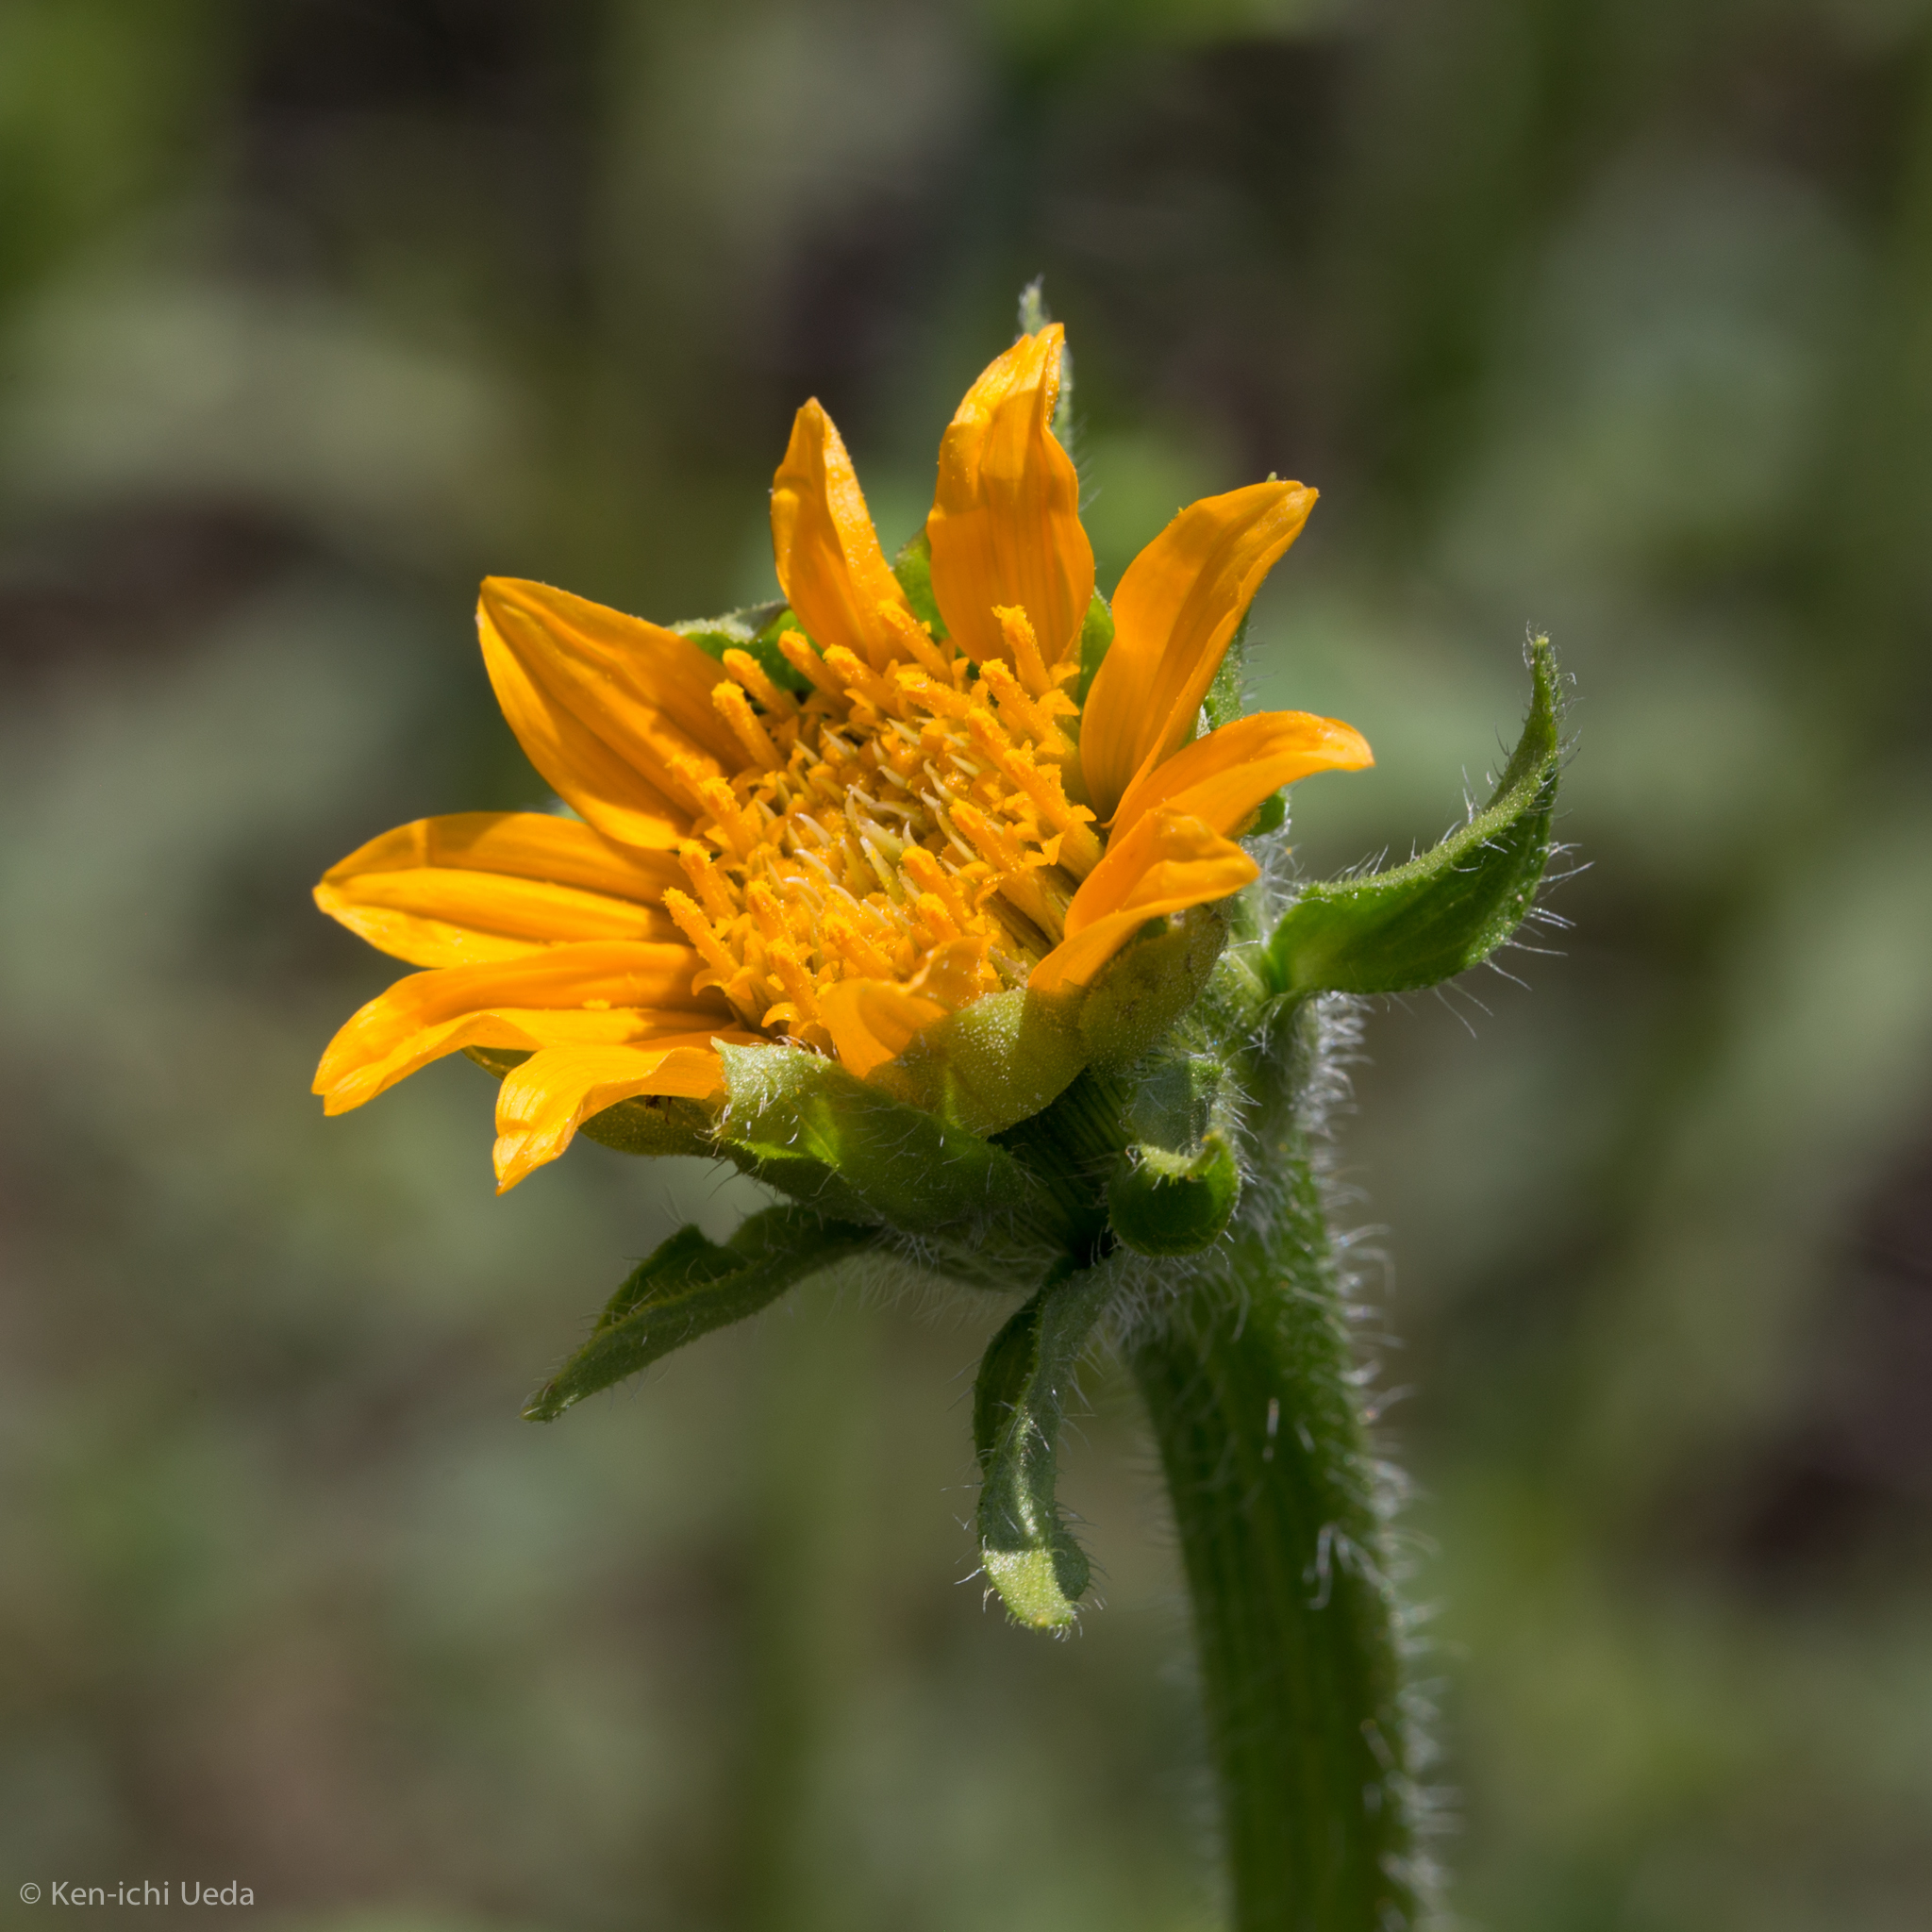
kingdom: Plantae
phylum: Tracheophyta
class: Magnoliopsida
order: Asterales
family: Asteraceae
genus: Tithonia
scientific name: Tithonia thurberi
